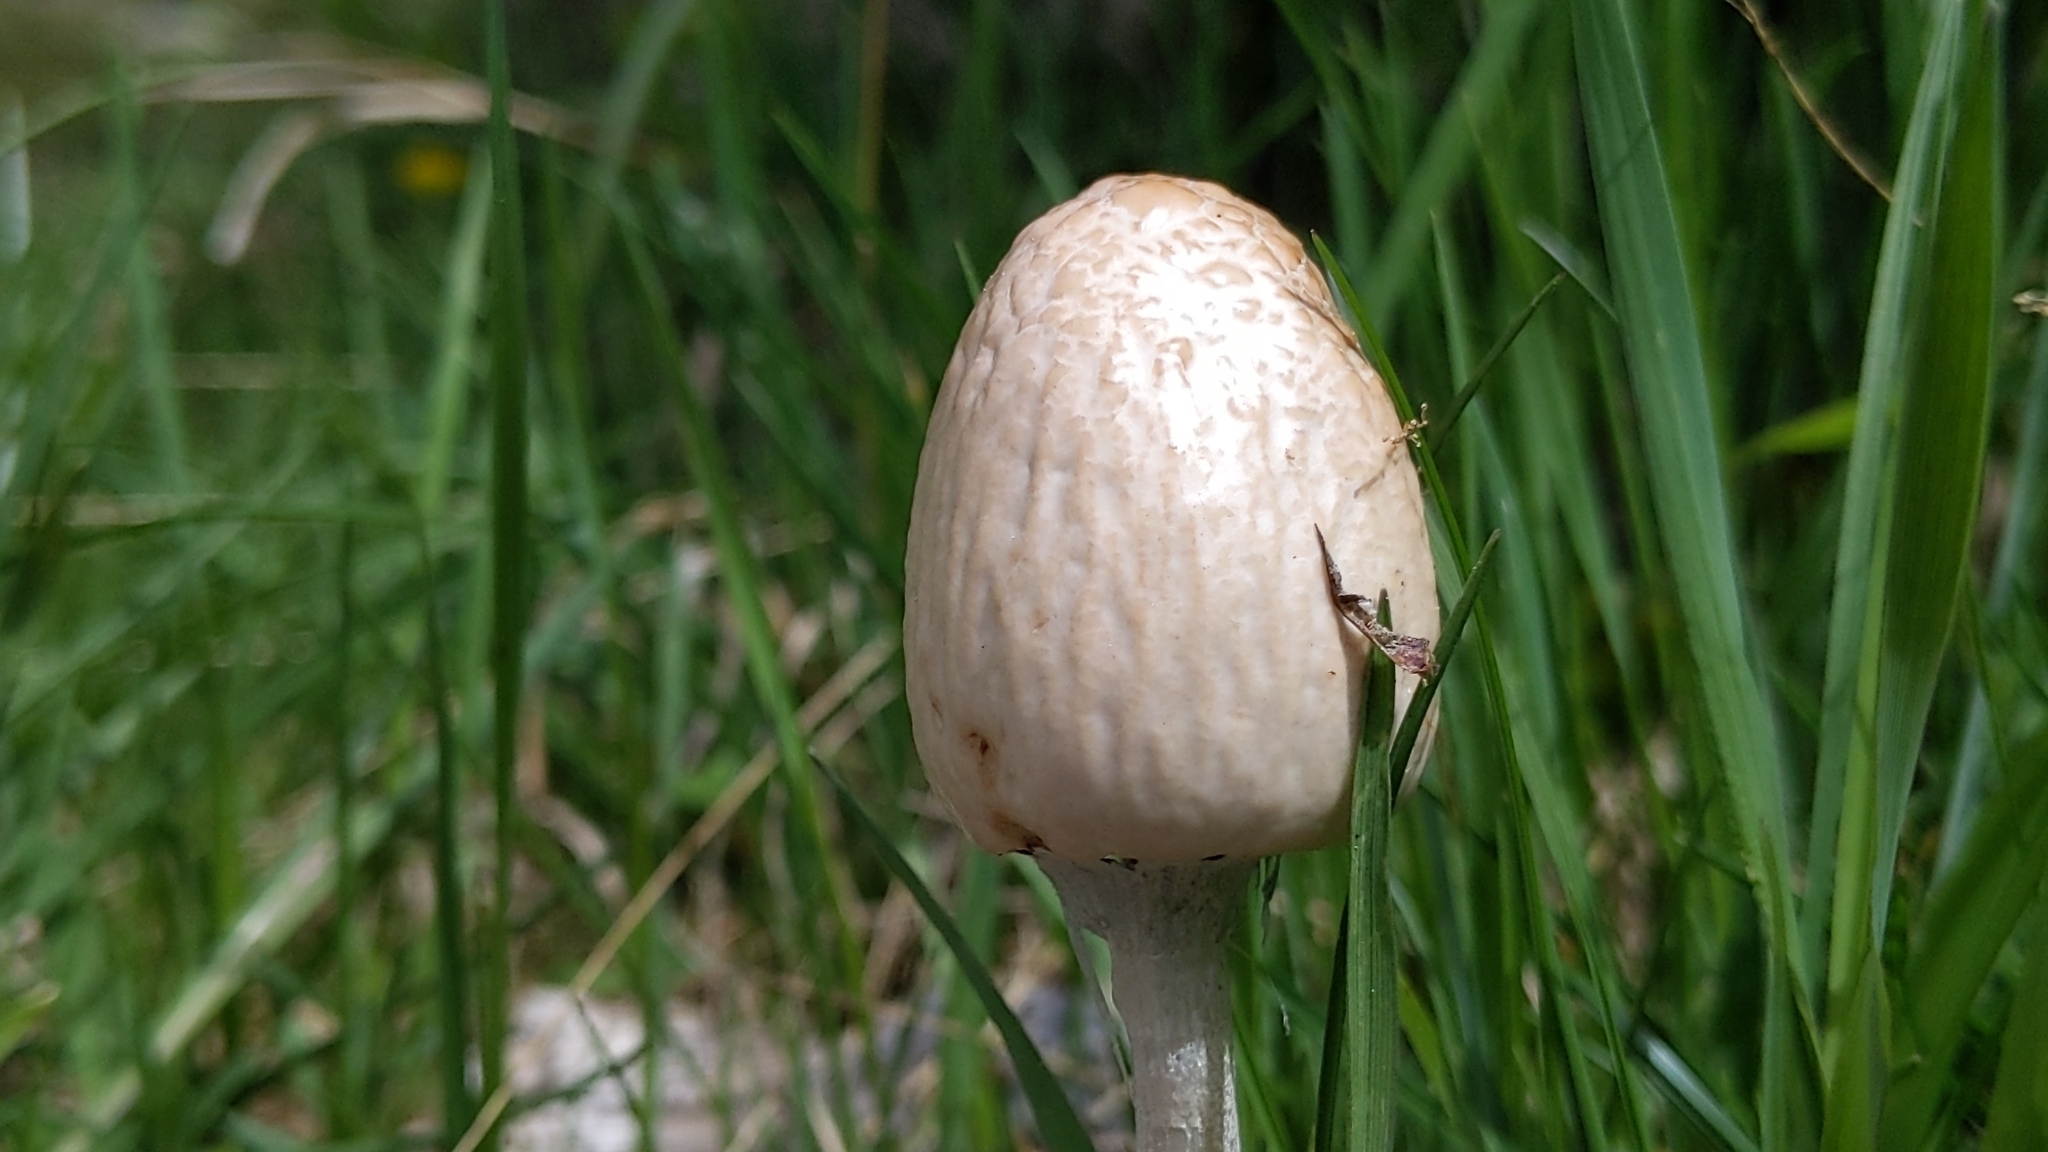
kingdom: Fungi
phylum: Basidiomycota
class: Agaricomycetes
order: Agaricales
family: Bolbitiaceae
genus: Panaeolus
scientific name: Panaeolus semiovatus
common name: Shiny mottlegill
